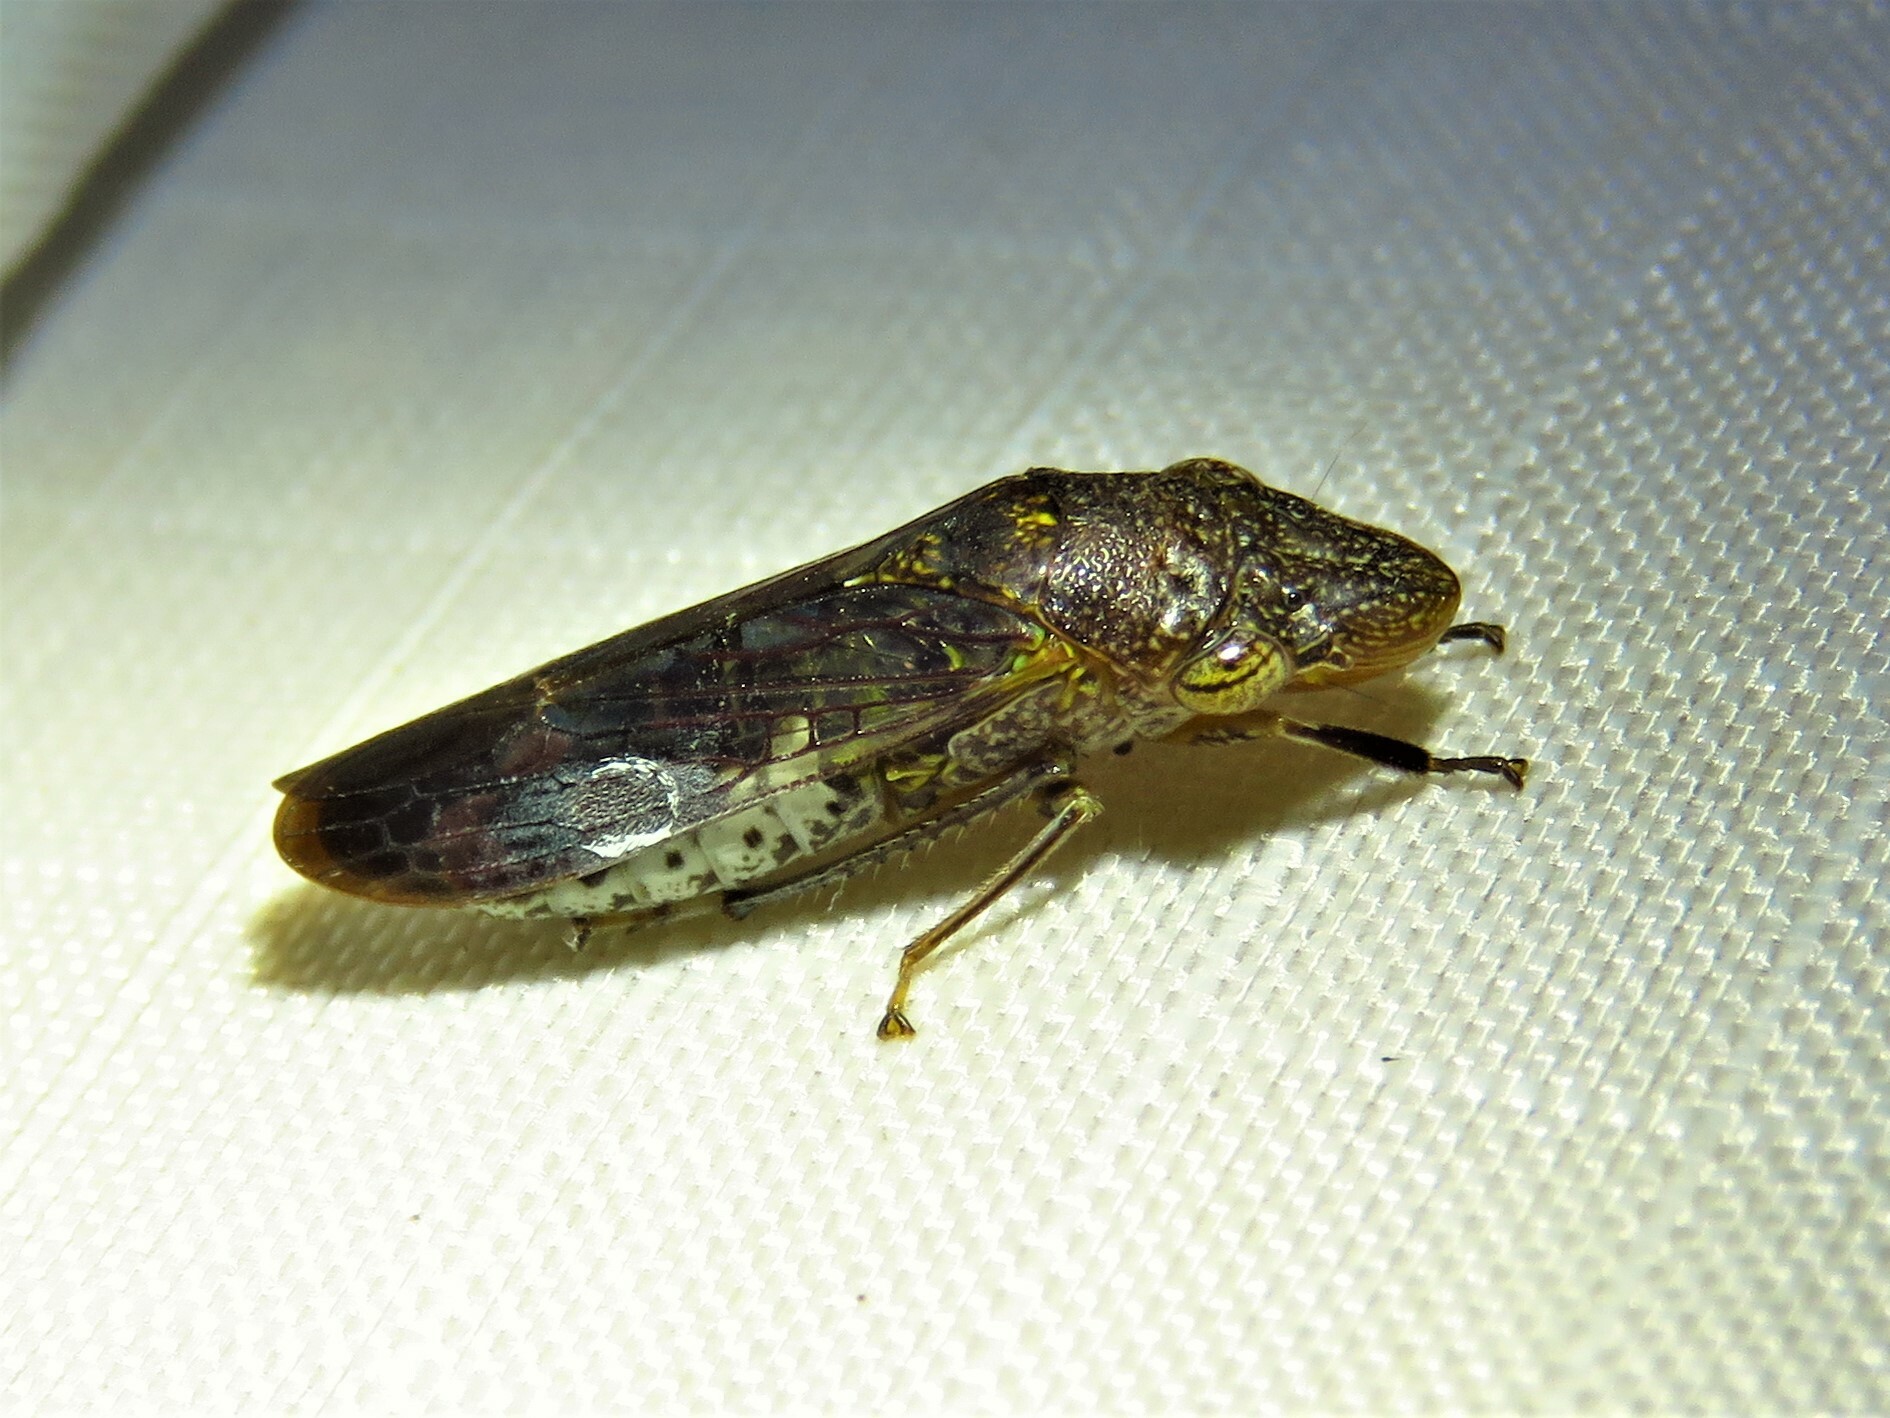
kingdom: Animalia
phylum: Arthropoda
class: Insecta
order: Hemiptera
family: Cicadellidae
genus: Homalodisca
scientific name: Homalodisca vitripennis
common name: Glassy-winged sharpshooter
